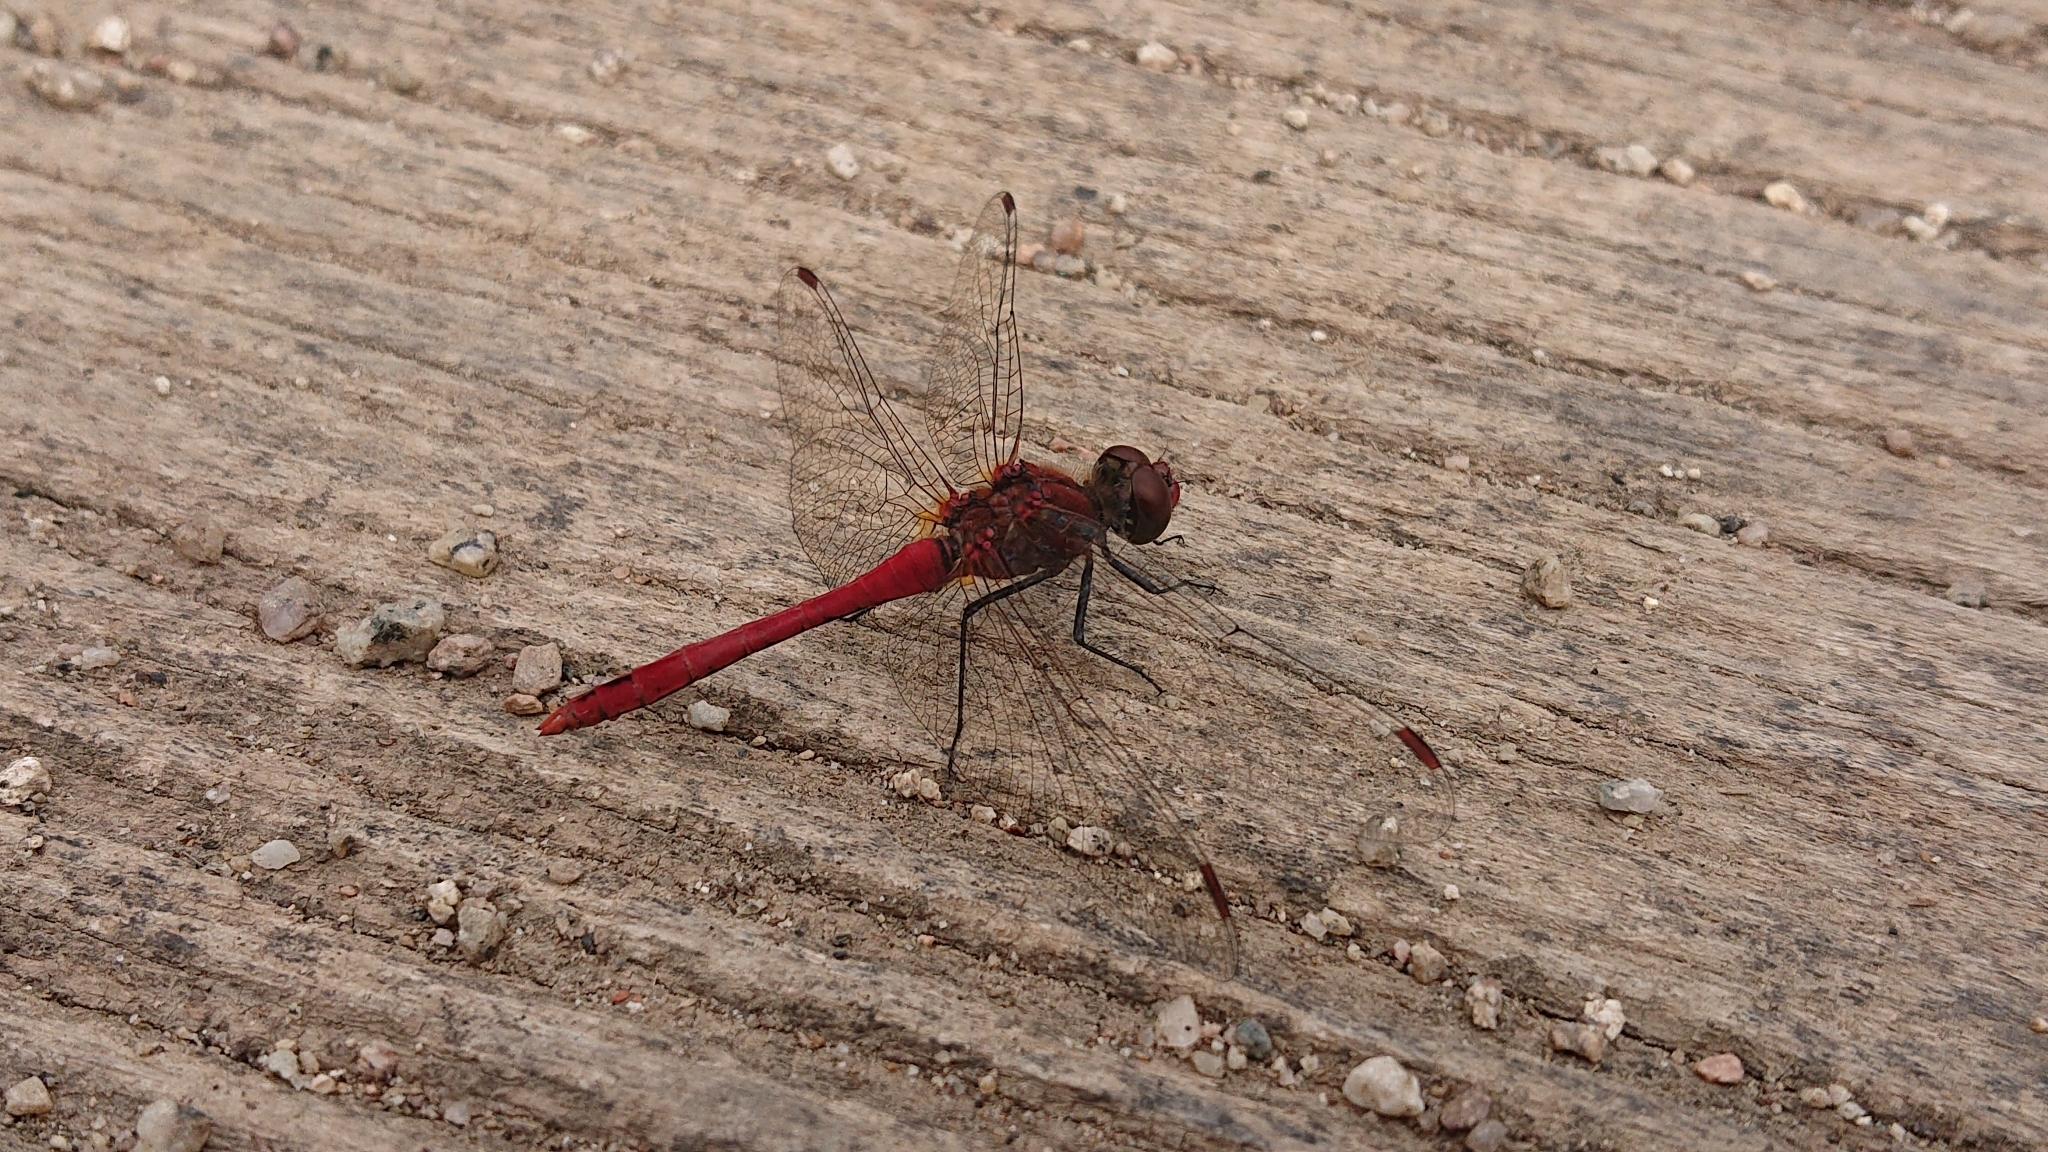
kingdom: Animalia
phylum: Arthropoda
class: Insecta
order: Odonata
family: Libellulidae
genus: Sympetrum
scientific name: Sympetrum sanguineum
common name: Ruddy darter
